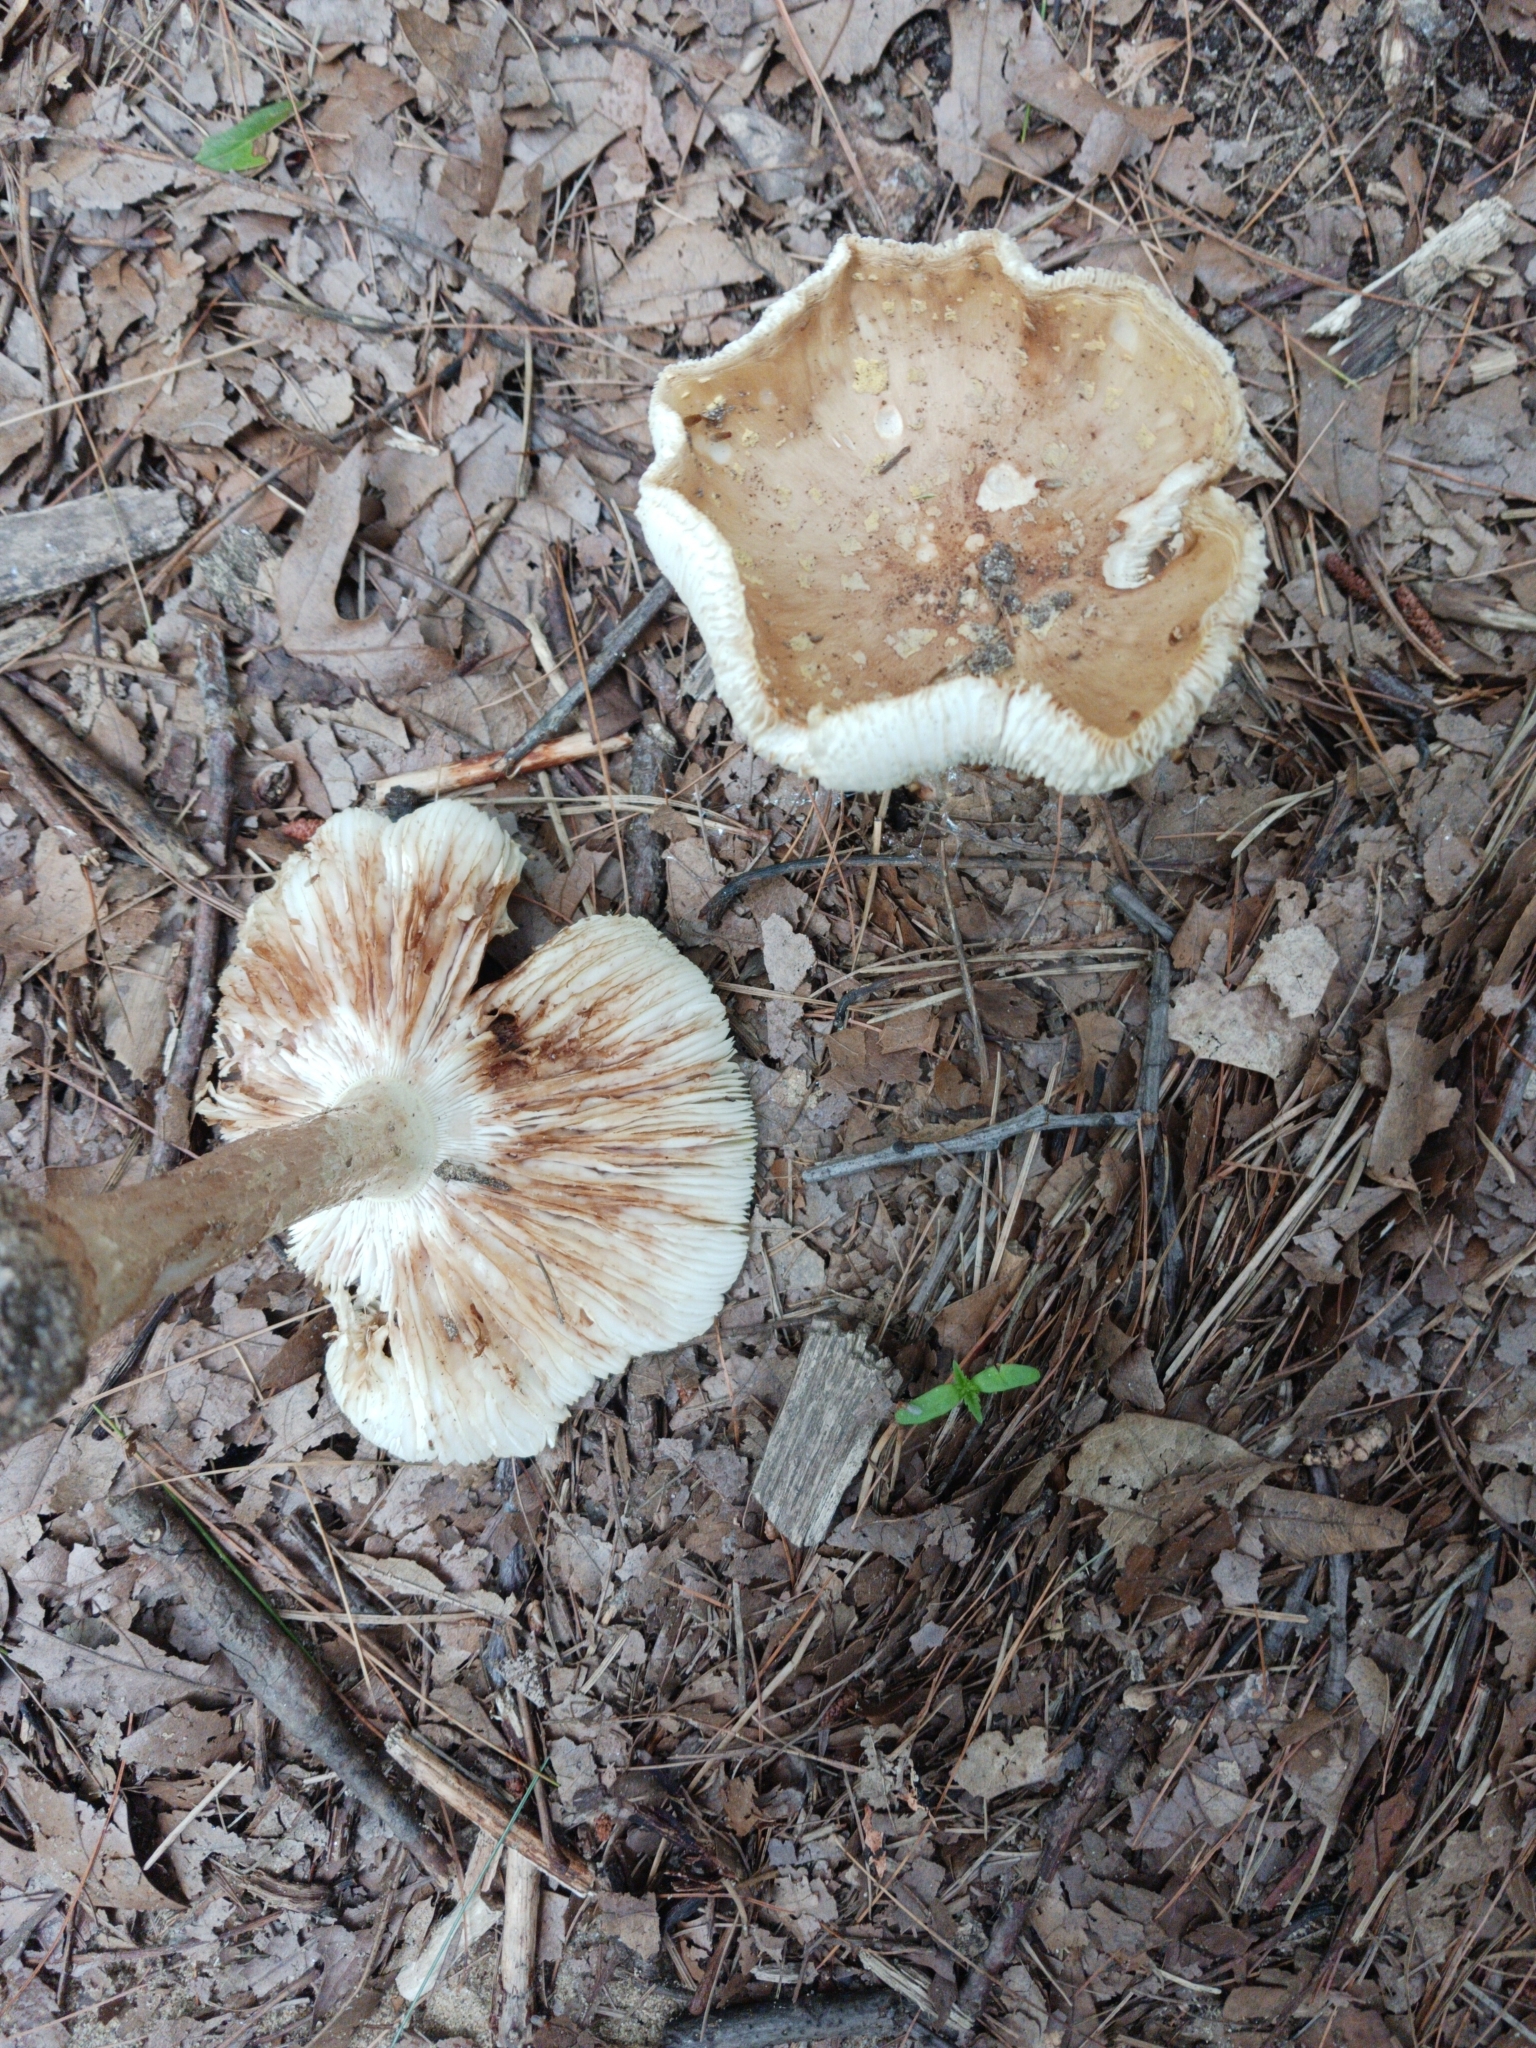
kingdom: Fungi
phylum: Basidiomycota
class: Agaricomycetes
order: Agaricales
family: Amanitaceae
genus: Amanita
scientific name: Amanita brunnescens
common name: Brown american star-footed amanita
